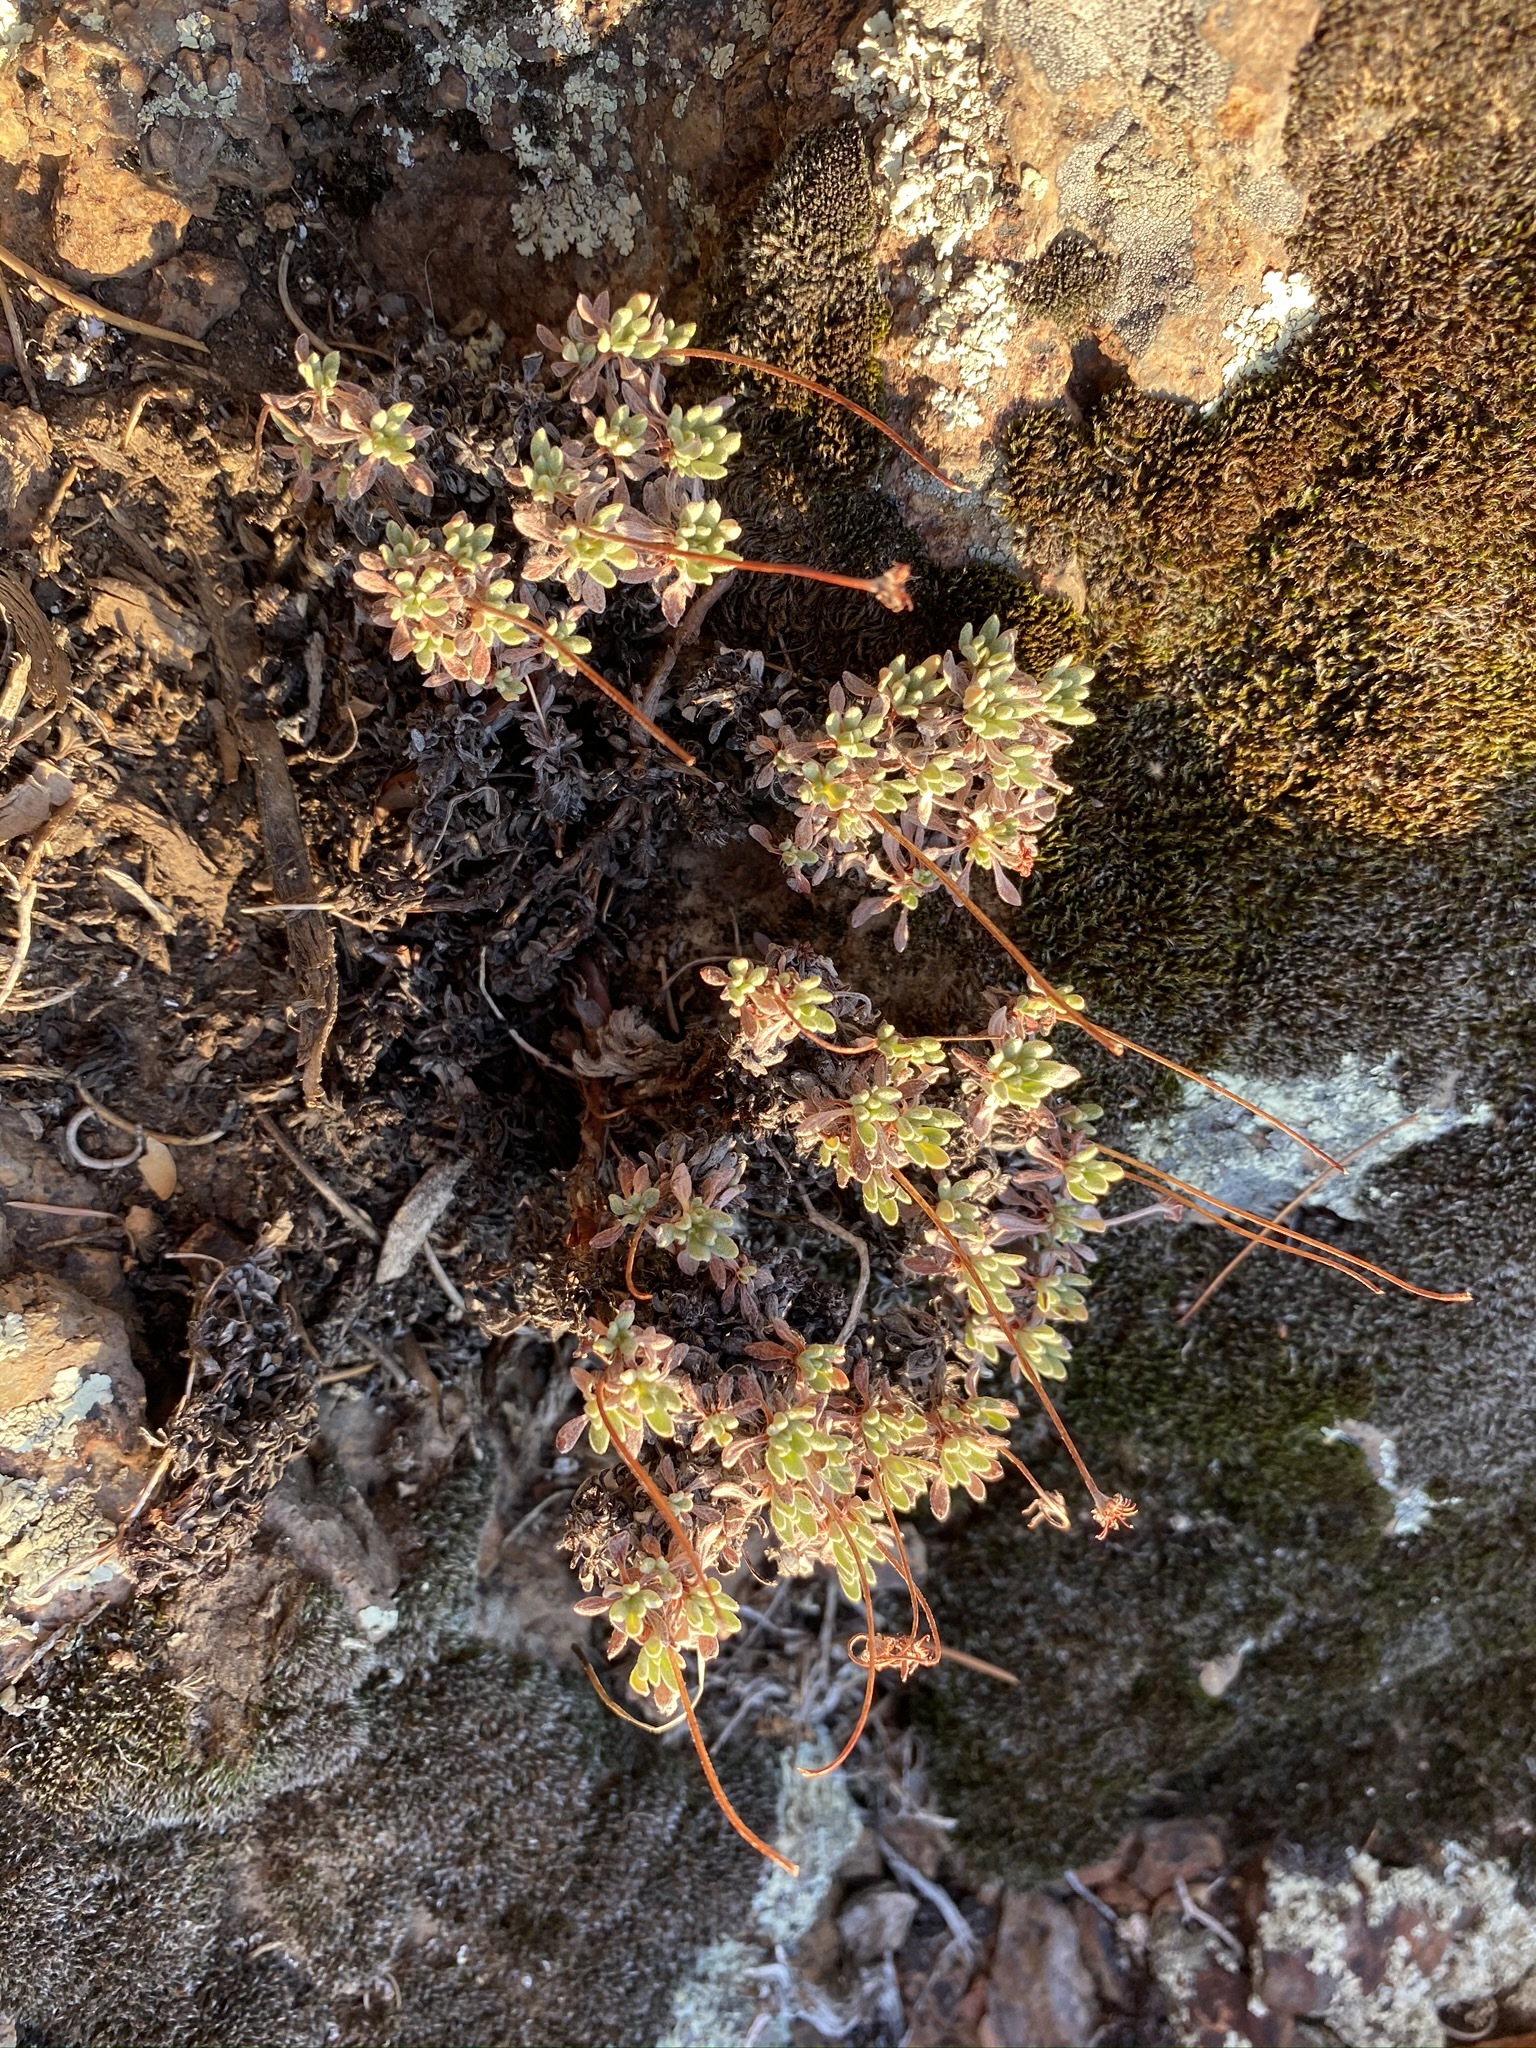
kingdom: Plantae
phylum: Tracheophyta
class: Magnoliopsida
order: Caryophyllales
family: Polygonaceae
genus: Eriogonum
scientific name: Eriogonum caespitosum
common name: Matted wild buckwheat
